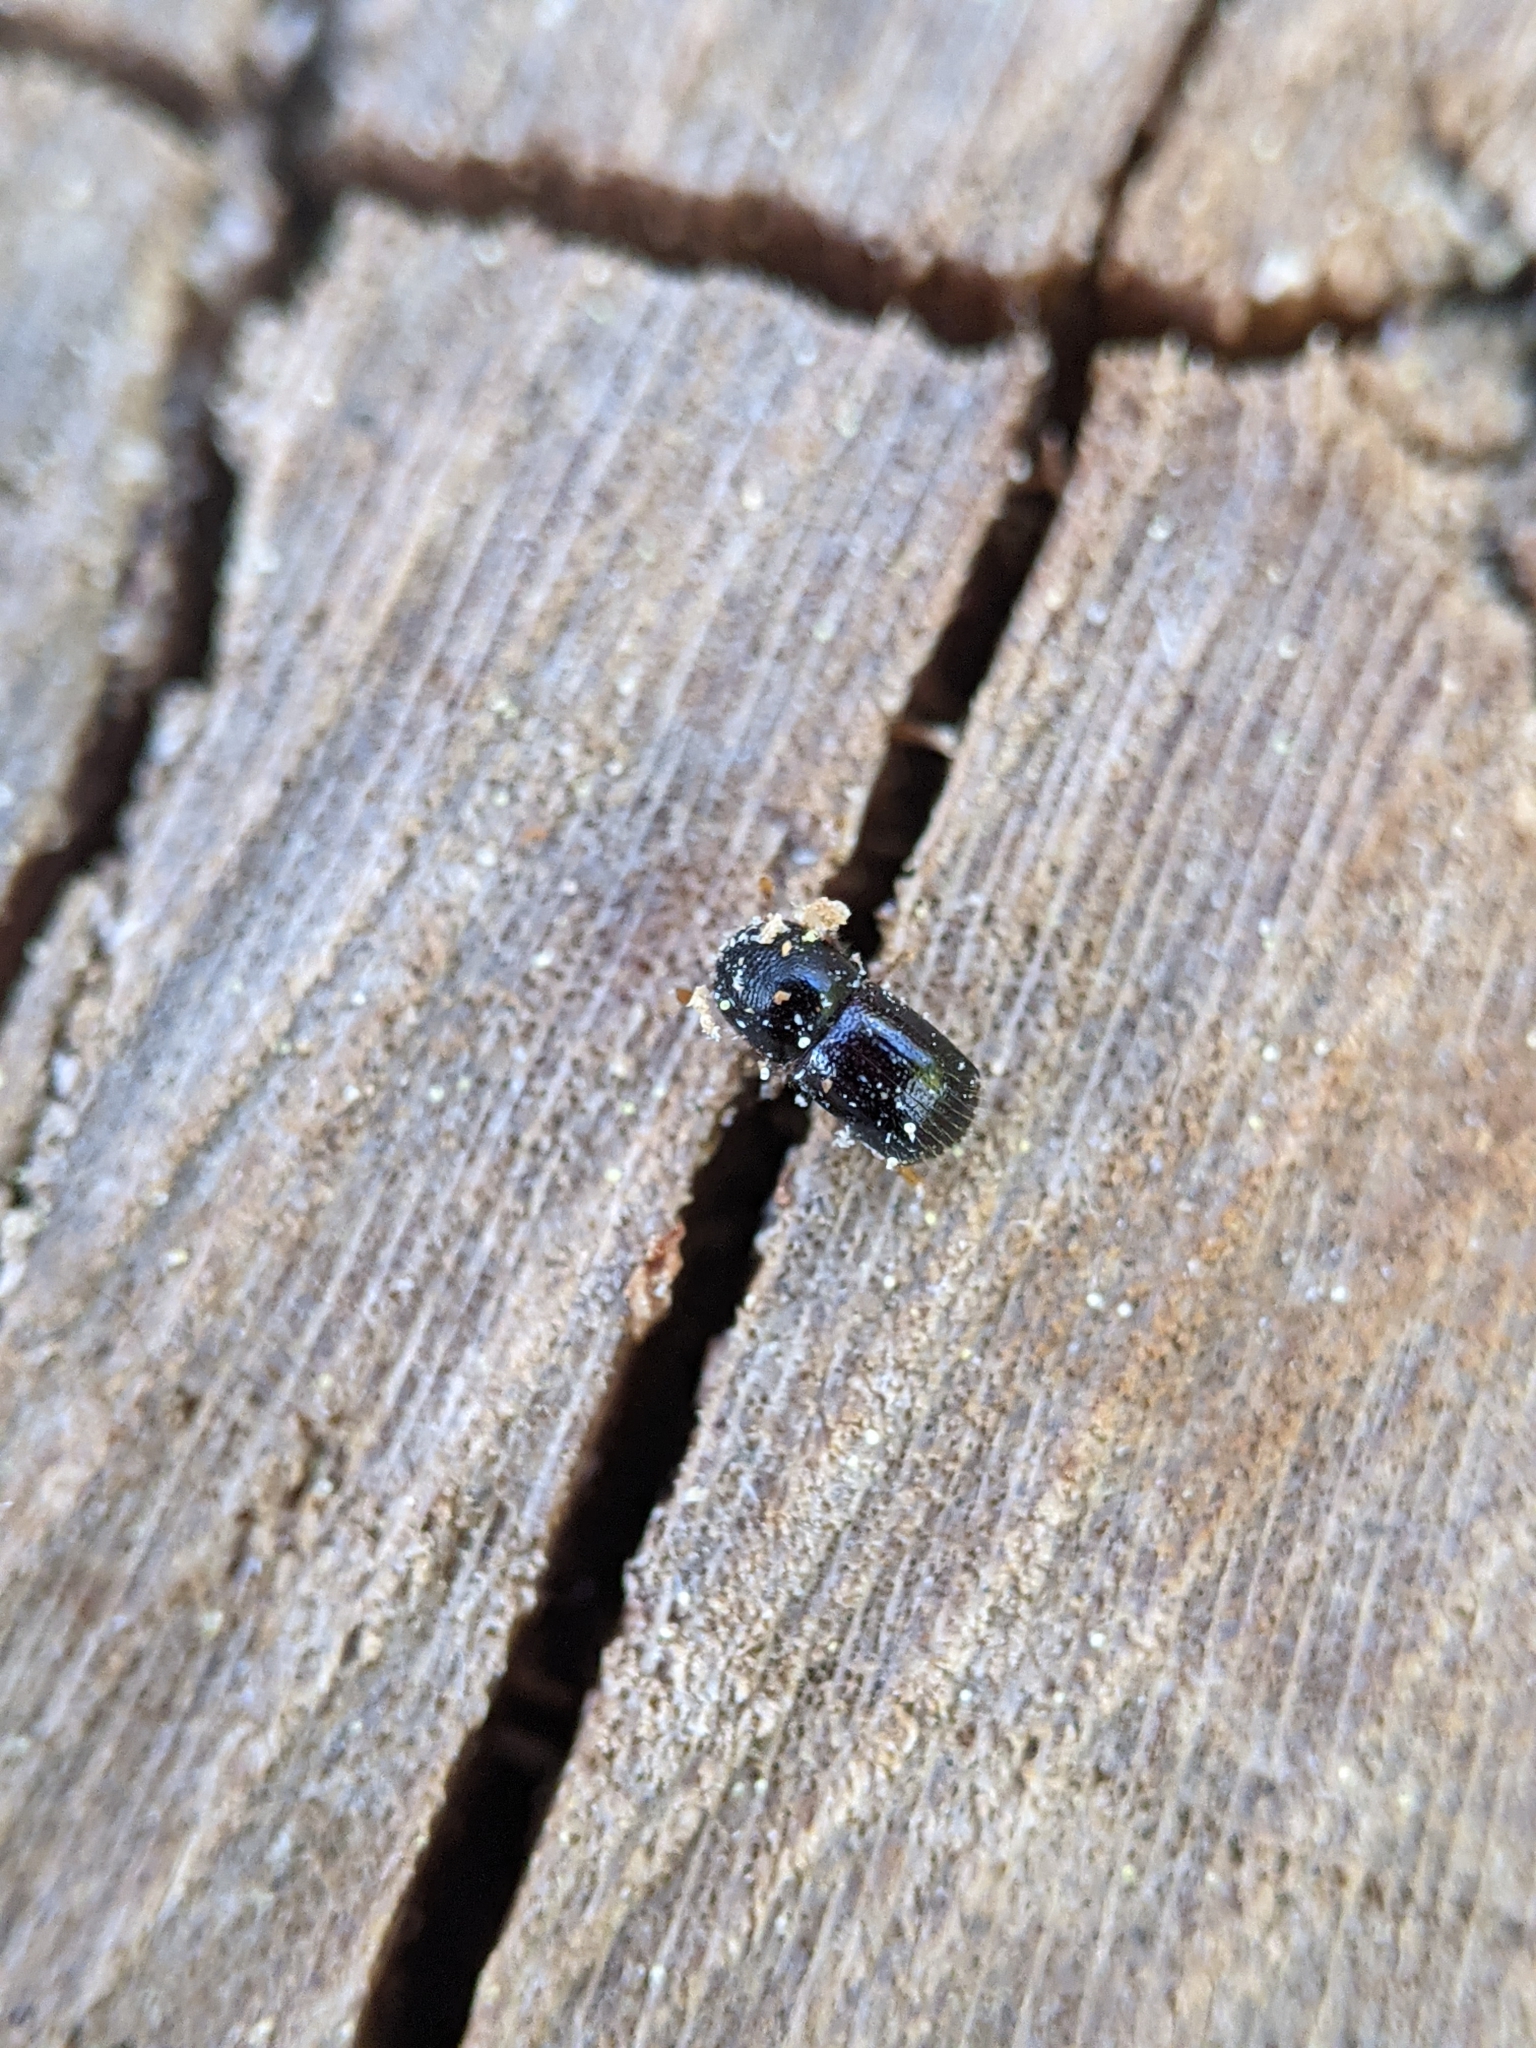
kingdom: Animalia
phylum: Arthropoda
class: Insecta
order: Coleoptera
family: Curculionidae
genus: Xylosandrus
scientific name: Xylosandrus germanus
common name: Bark beetle
